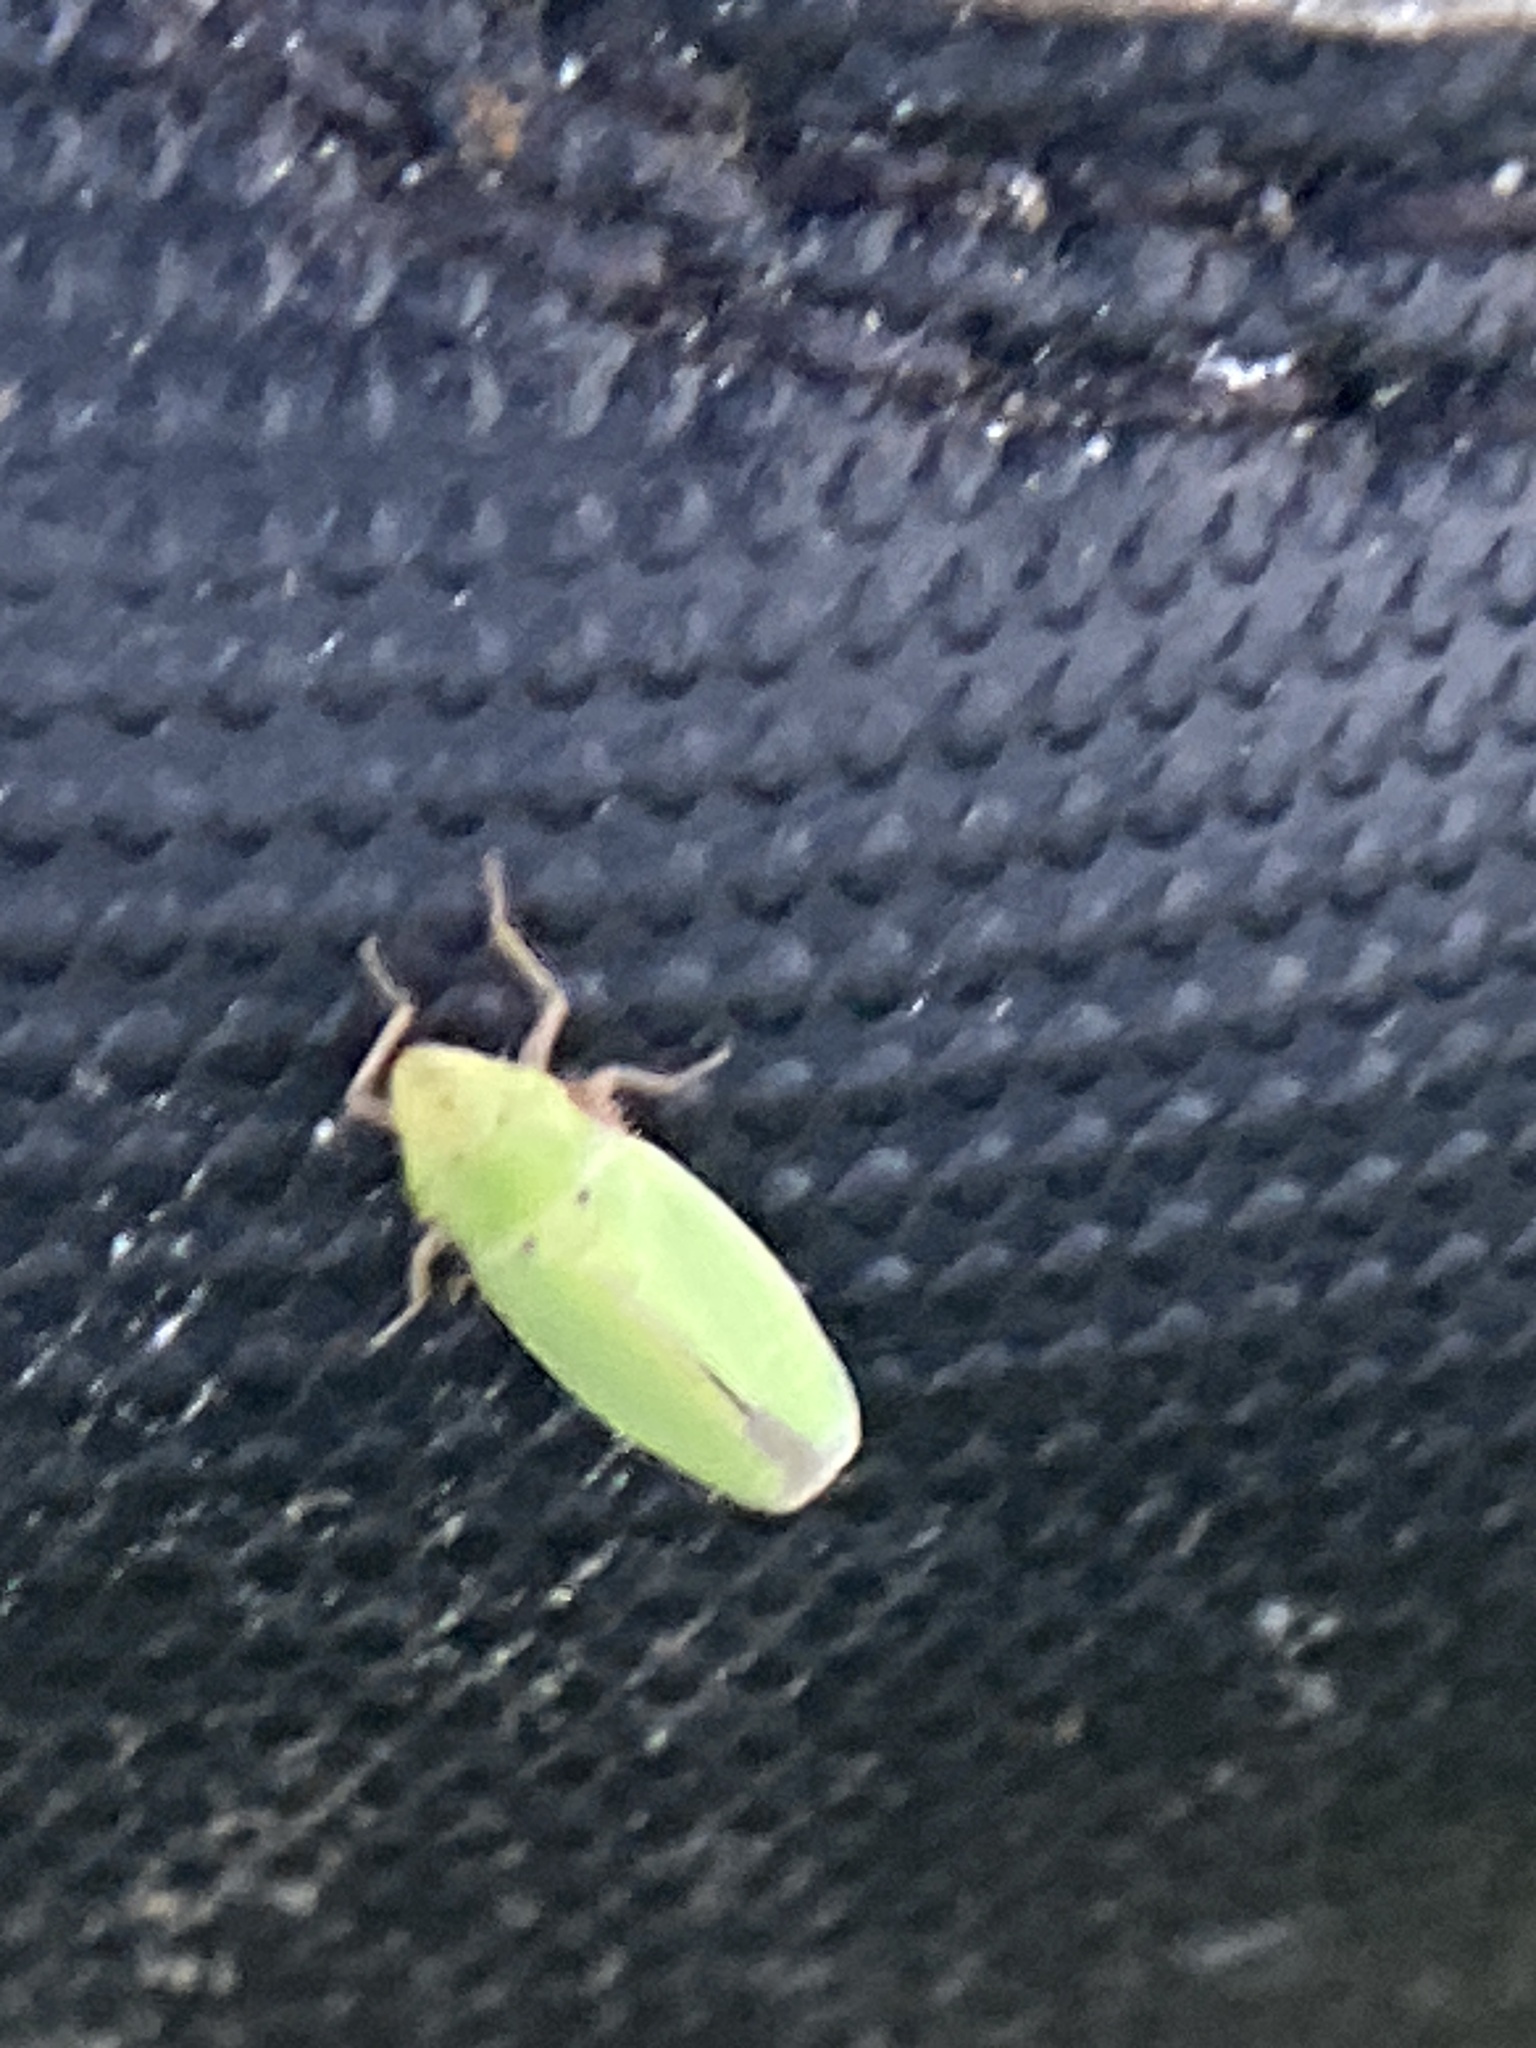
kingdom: Animalia
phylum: Arthropoda
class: Insecta
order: Hemiptera
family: Cicadellidae
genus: Draeculacephala
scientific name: Draeculacephala balli
